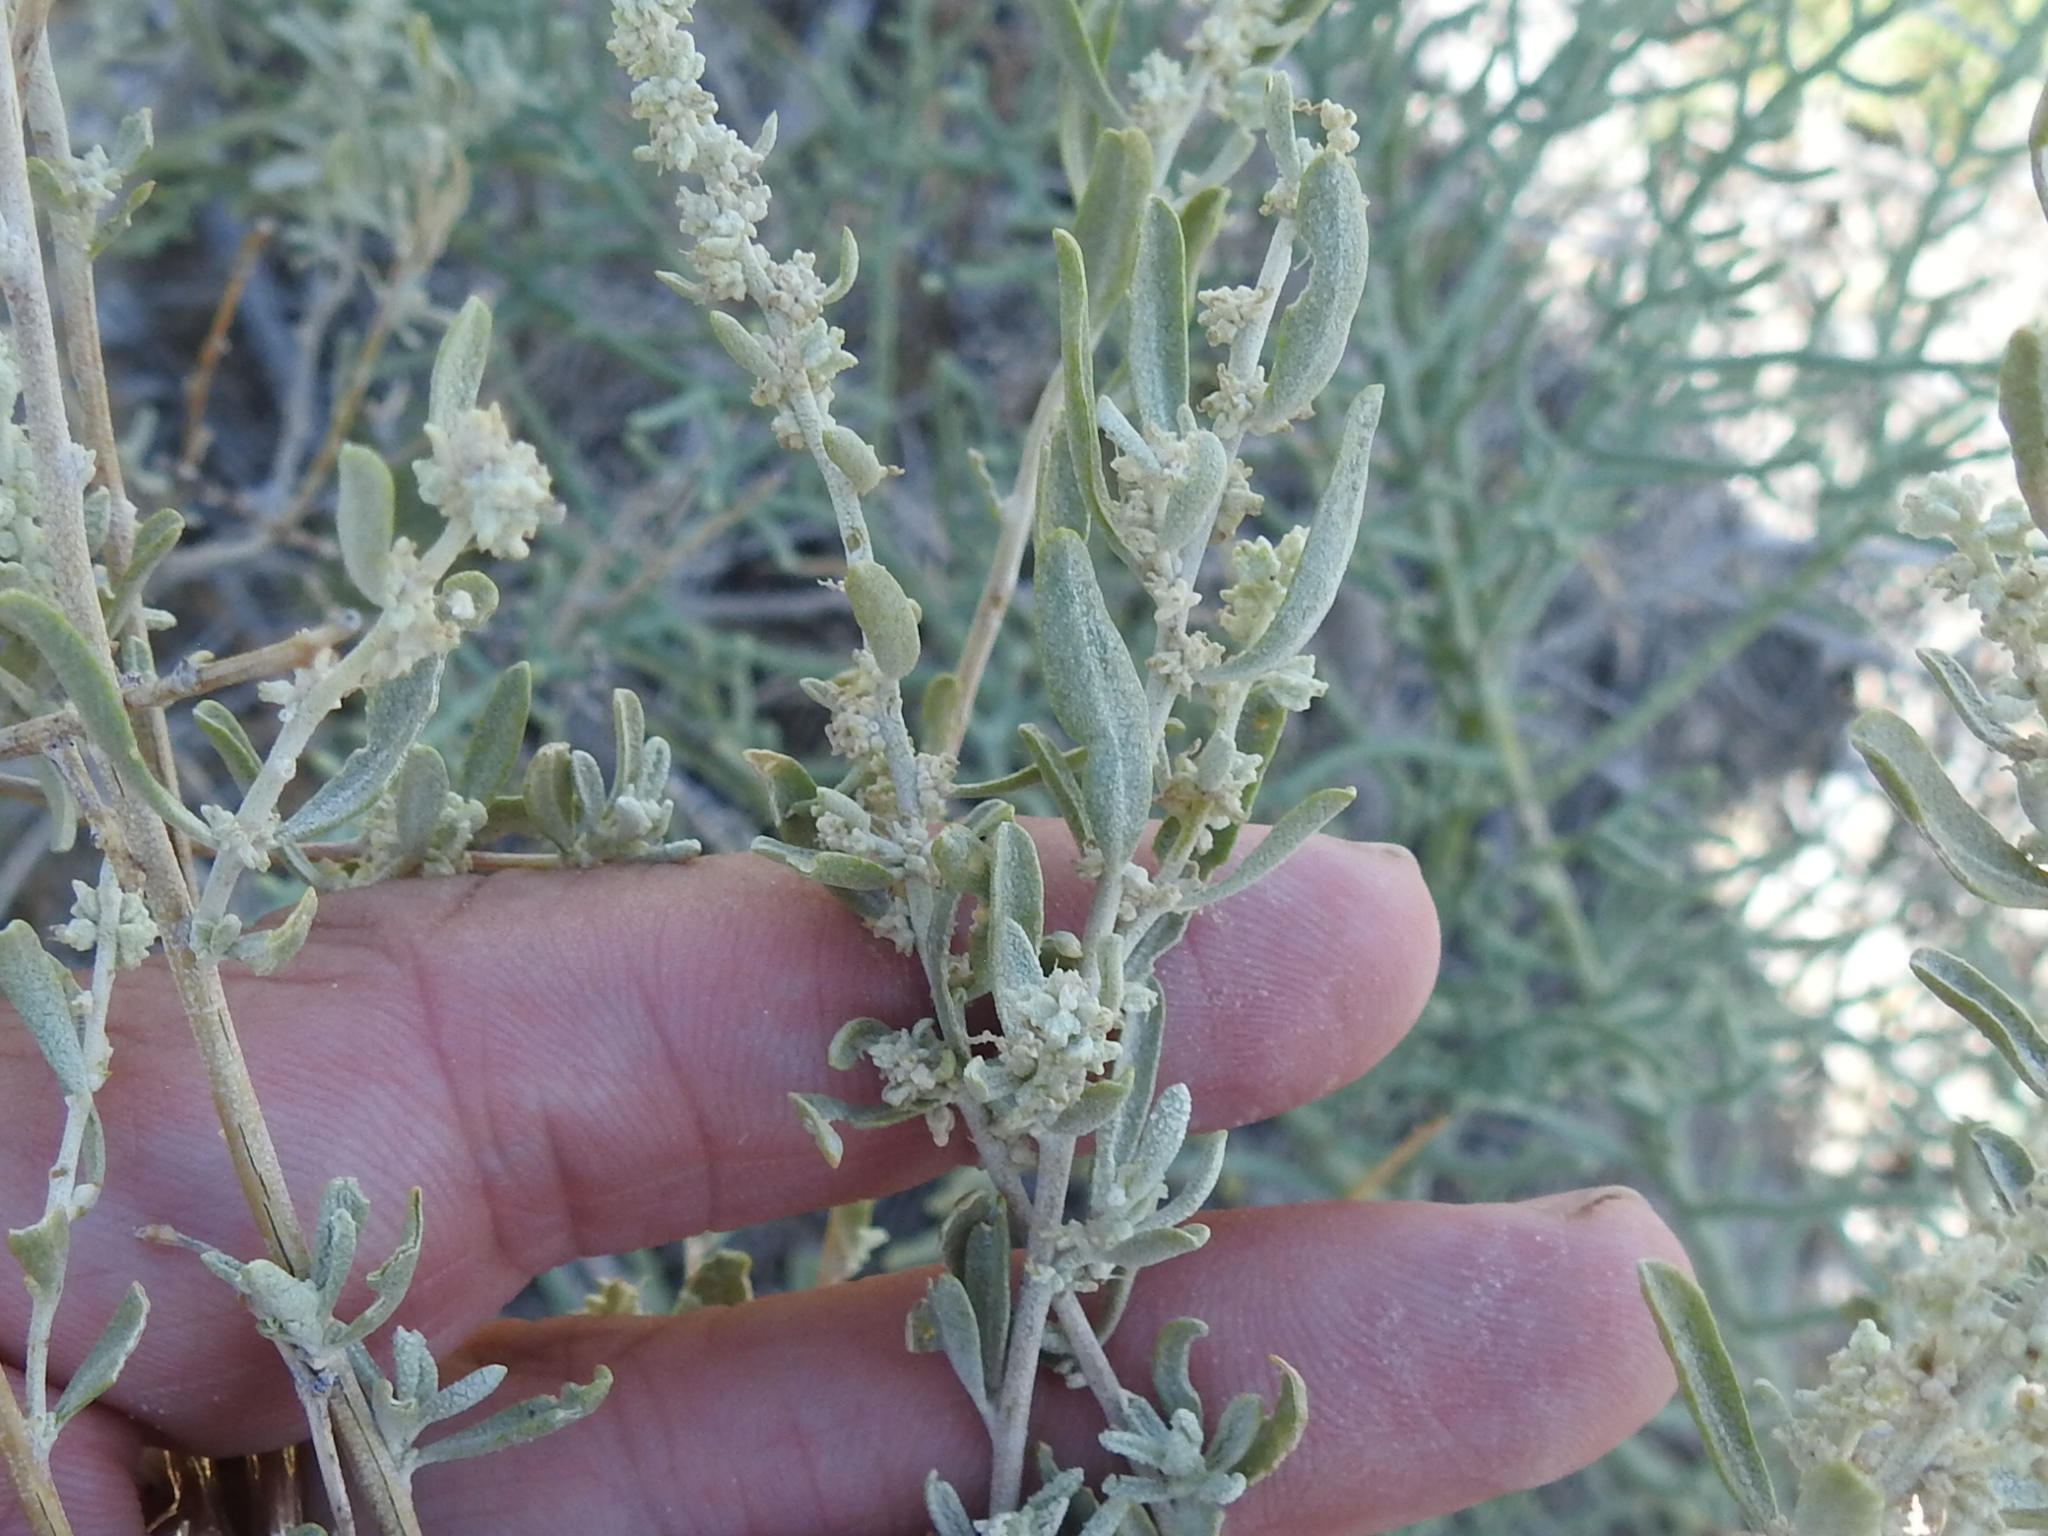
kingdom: Plantae
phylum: Tracheophyta
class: Magnoliopsida
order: Caryophyllales
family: Amaranthaceae
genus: Atriplex
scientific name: Atriplex canescens
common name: Four-wing saltbush
